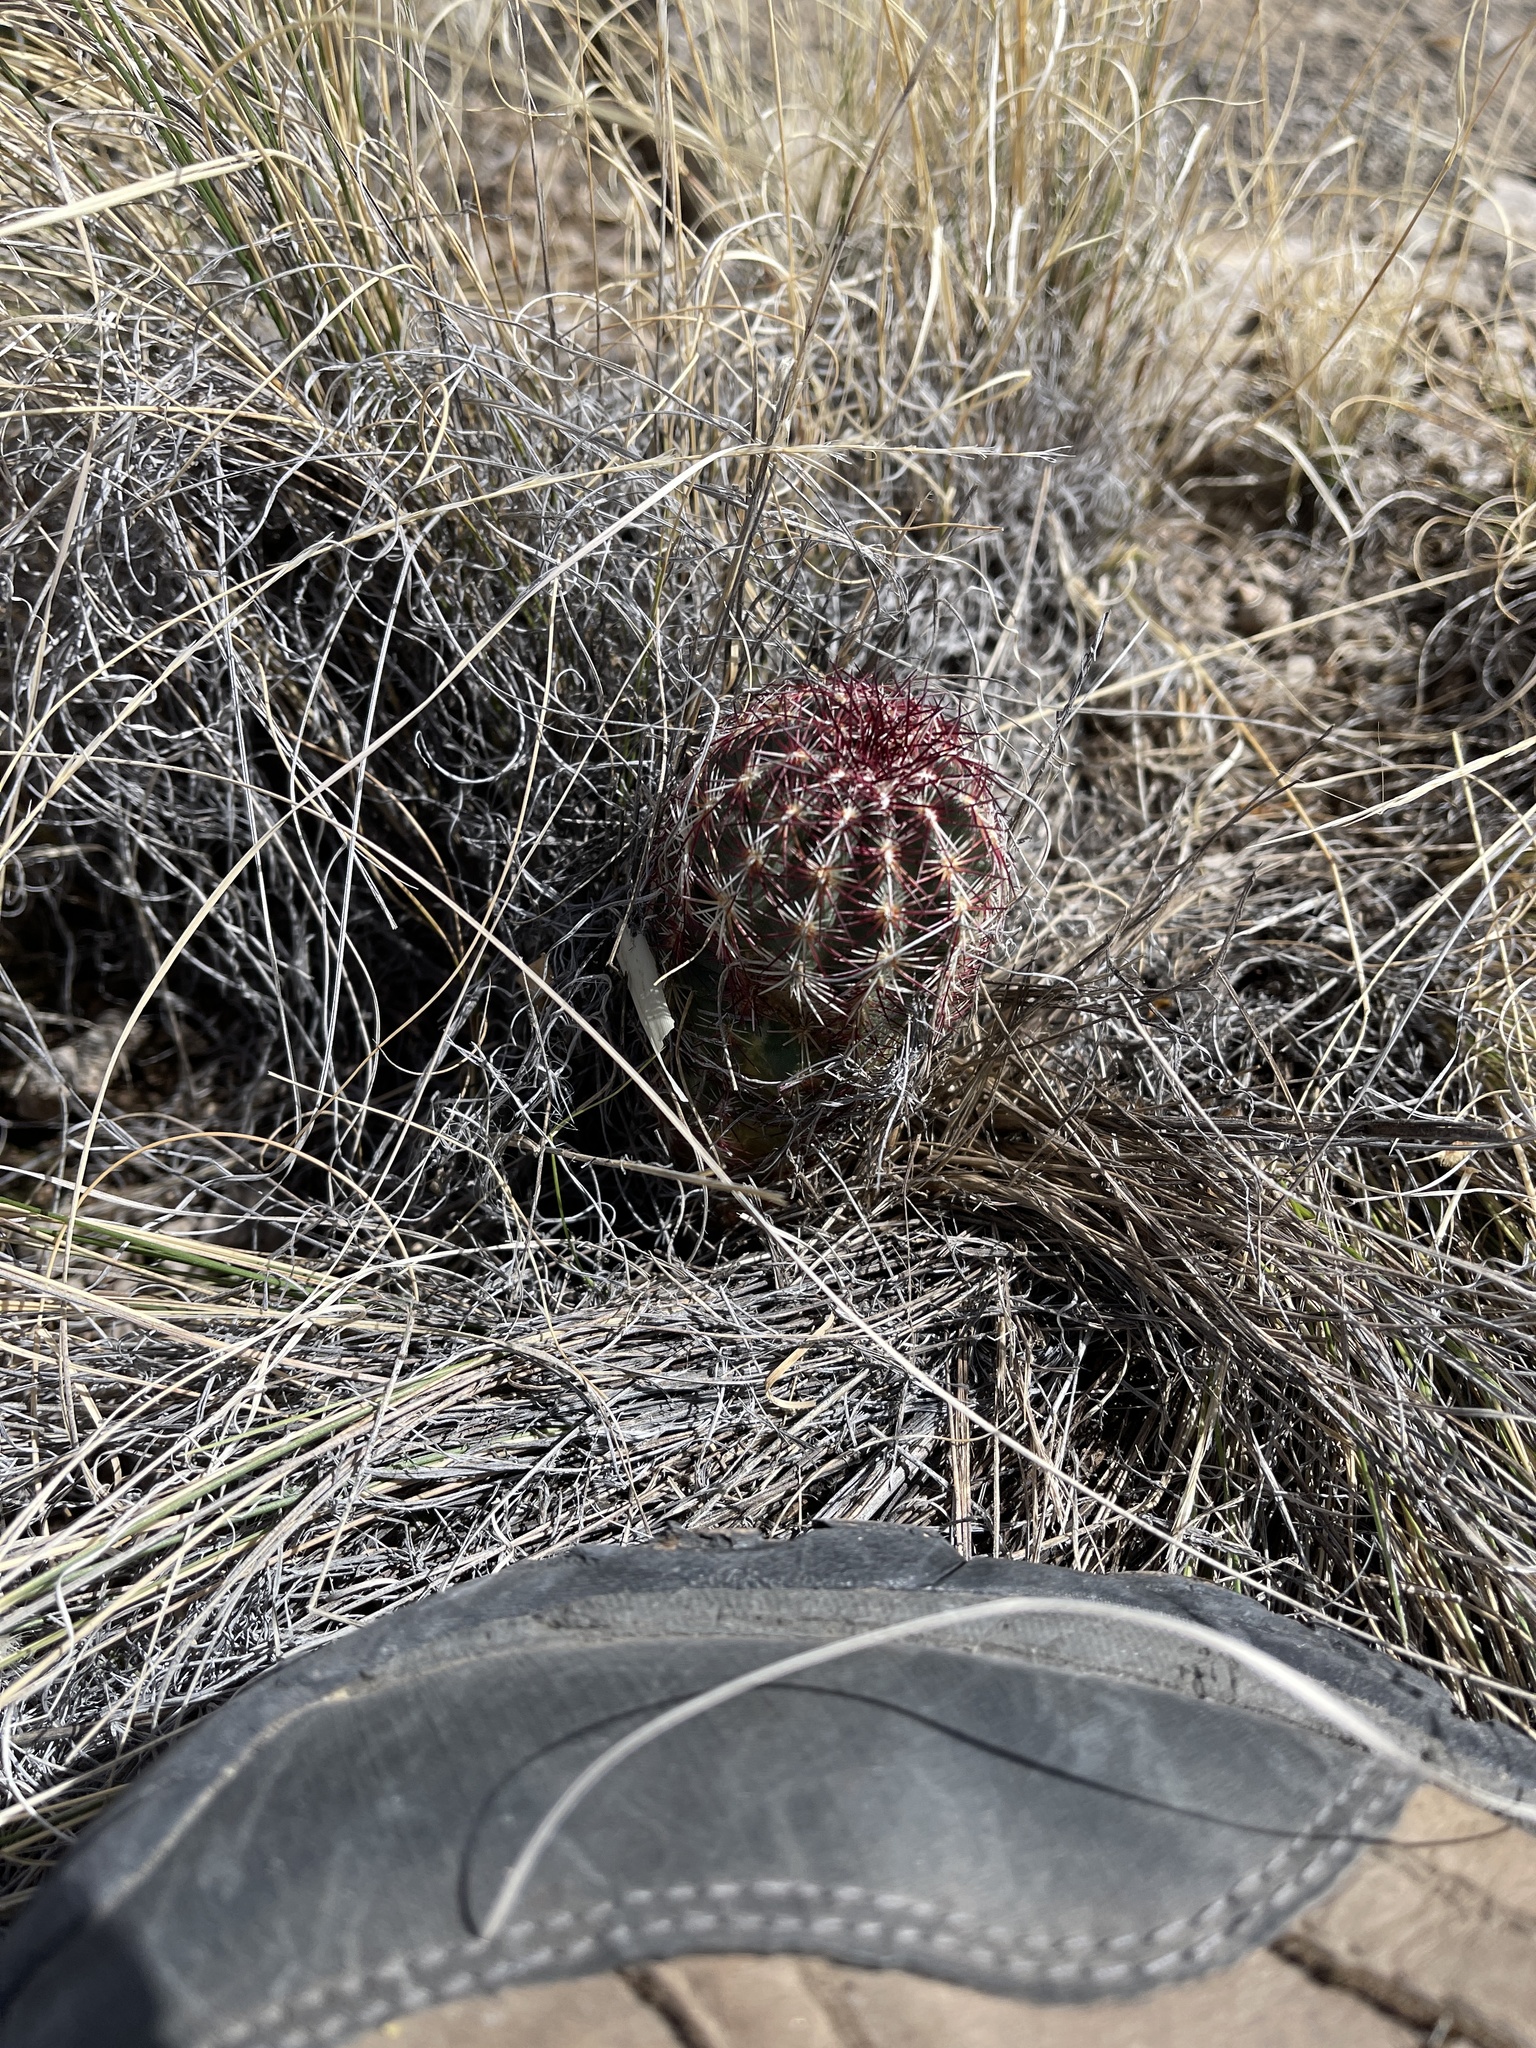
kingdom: Plantae
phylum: Tracheophyta
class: Magnoliopsida
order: Caryophyllales
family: Cactaceae
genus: Echinocereus
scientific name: Echinocereus viridiflorus
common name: Nylon hedgehog cactus
